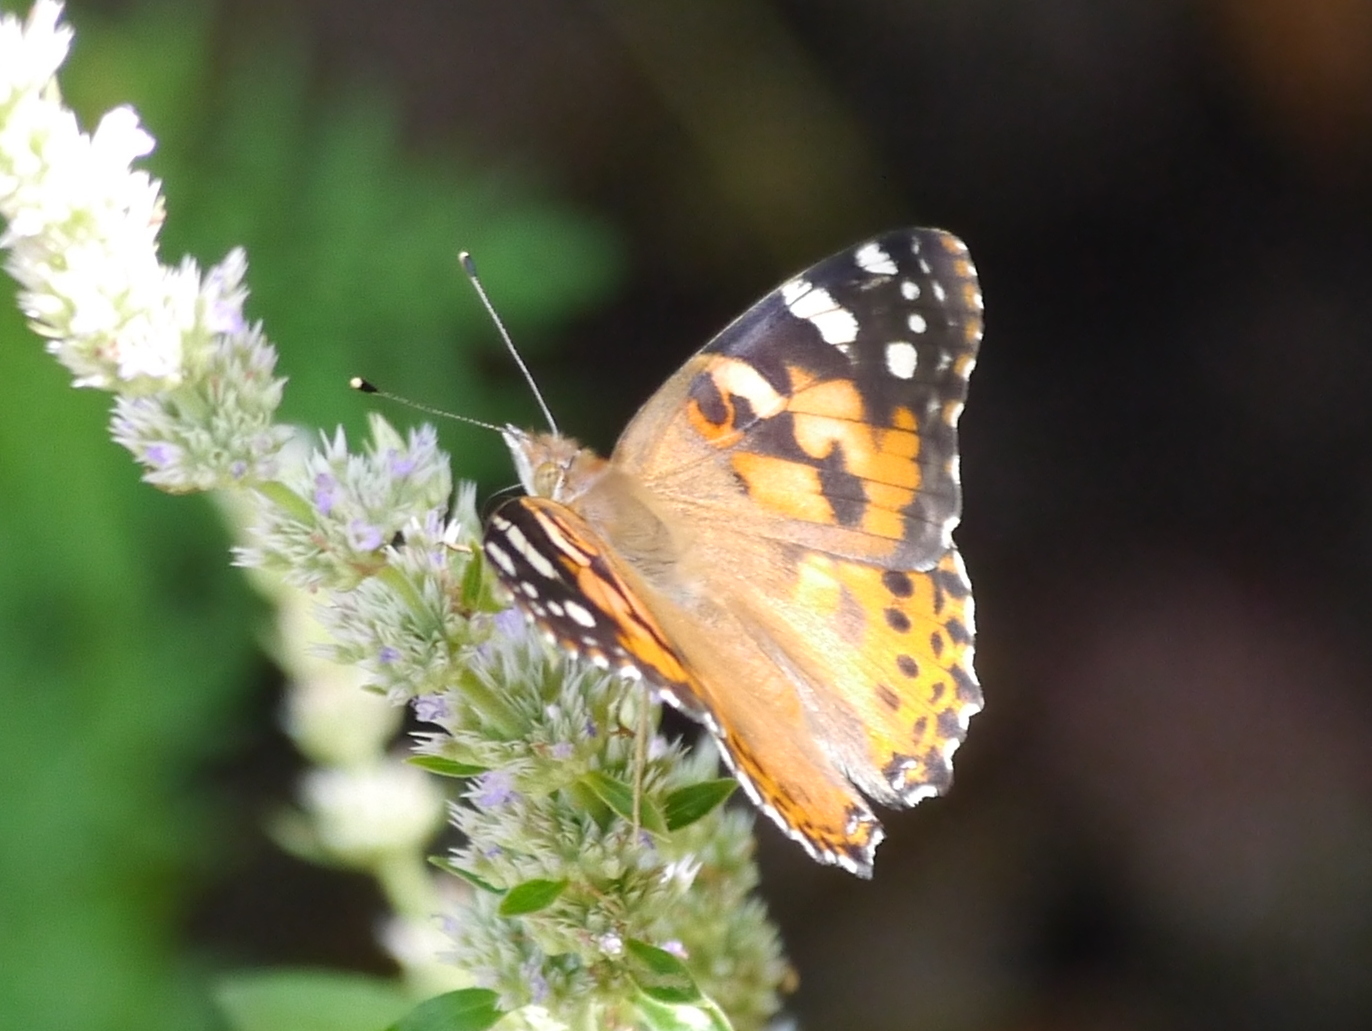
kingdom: Animalia
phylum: Arthropoda
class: Insecta
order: Lepidoptera
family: Nymphalidae
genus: Vanessa
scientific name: Vanessa cardui
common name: Painted lady
